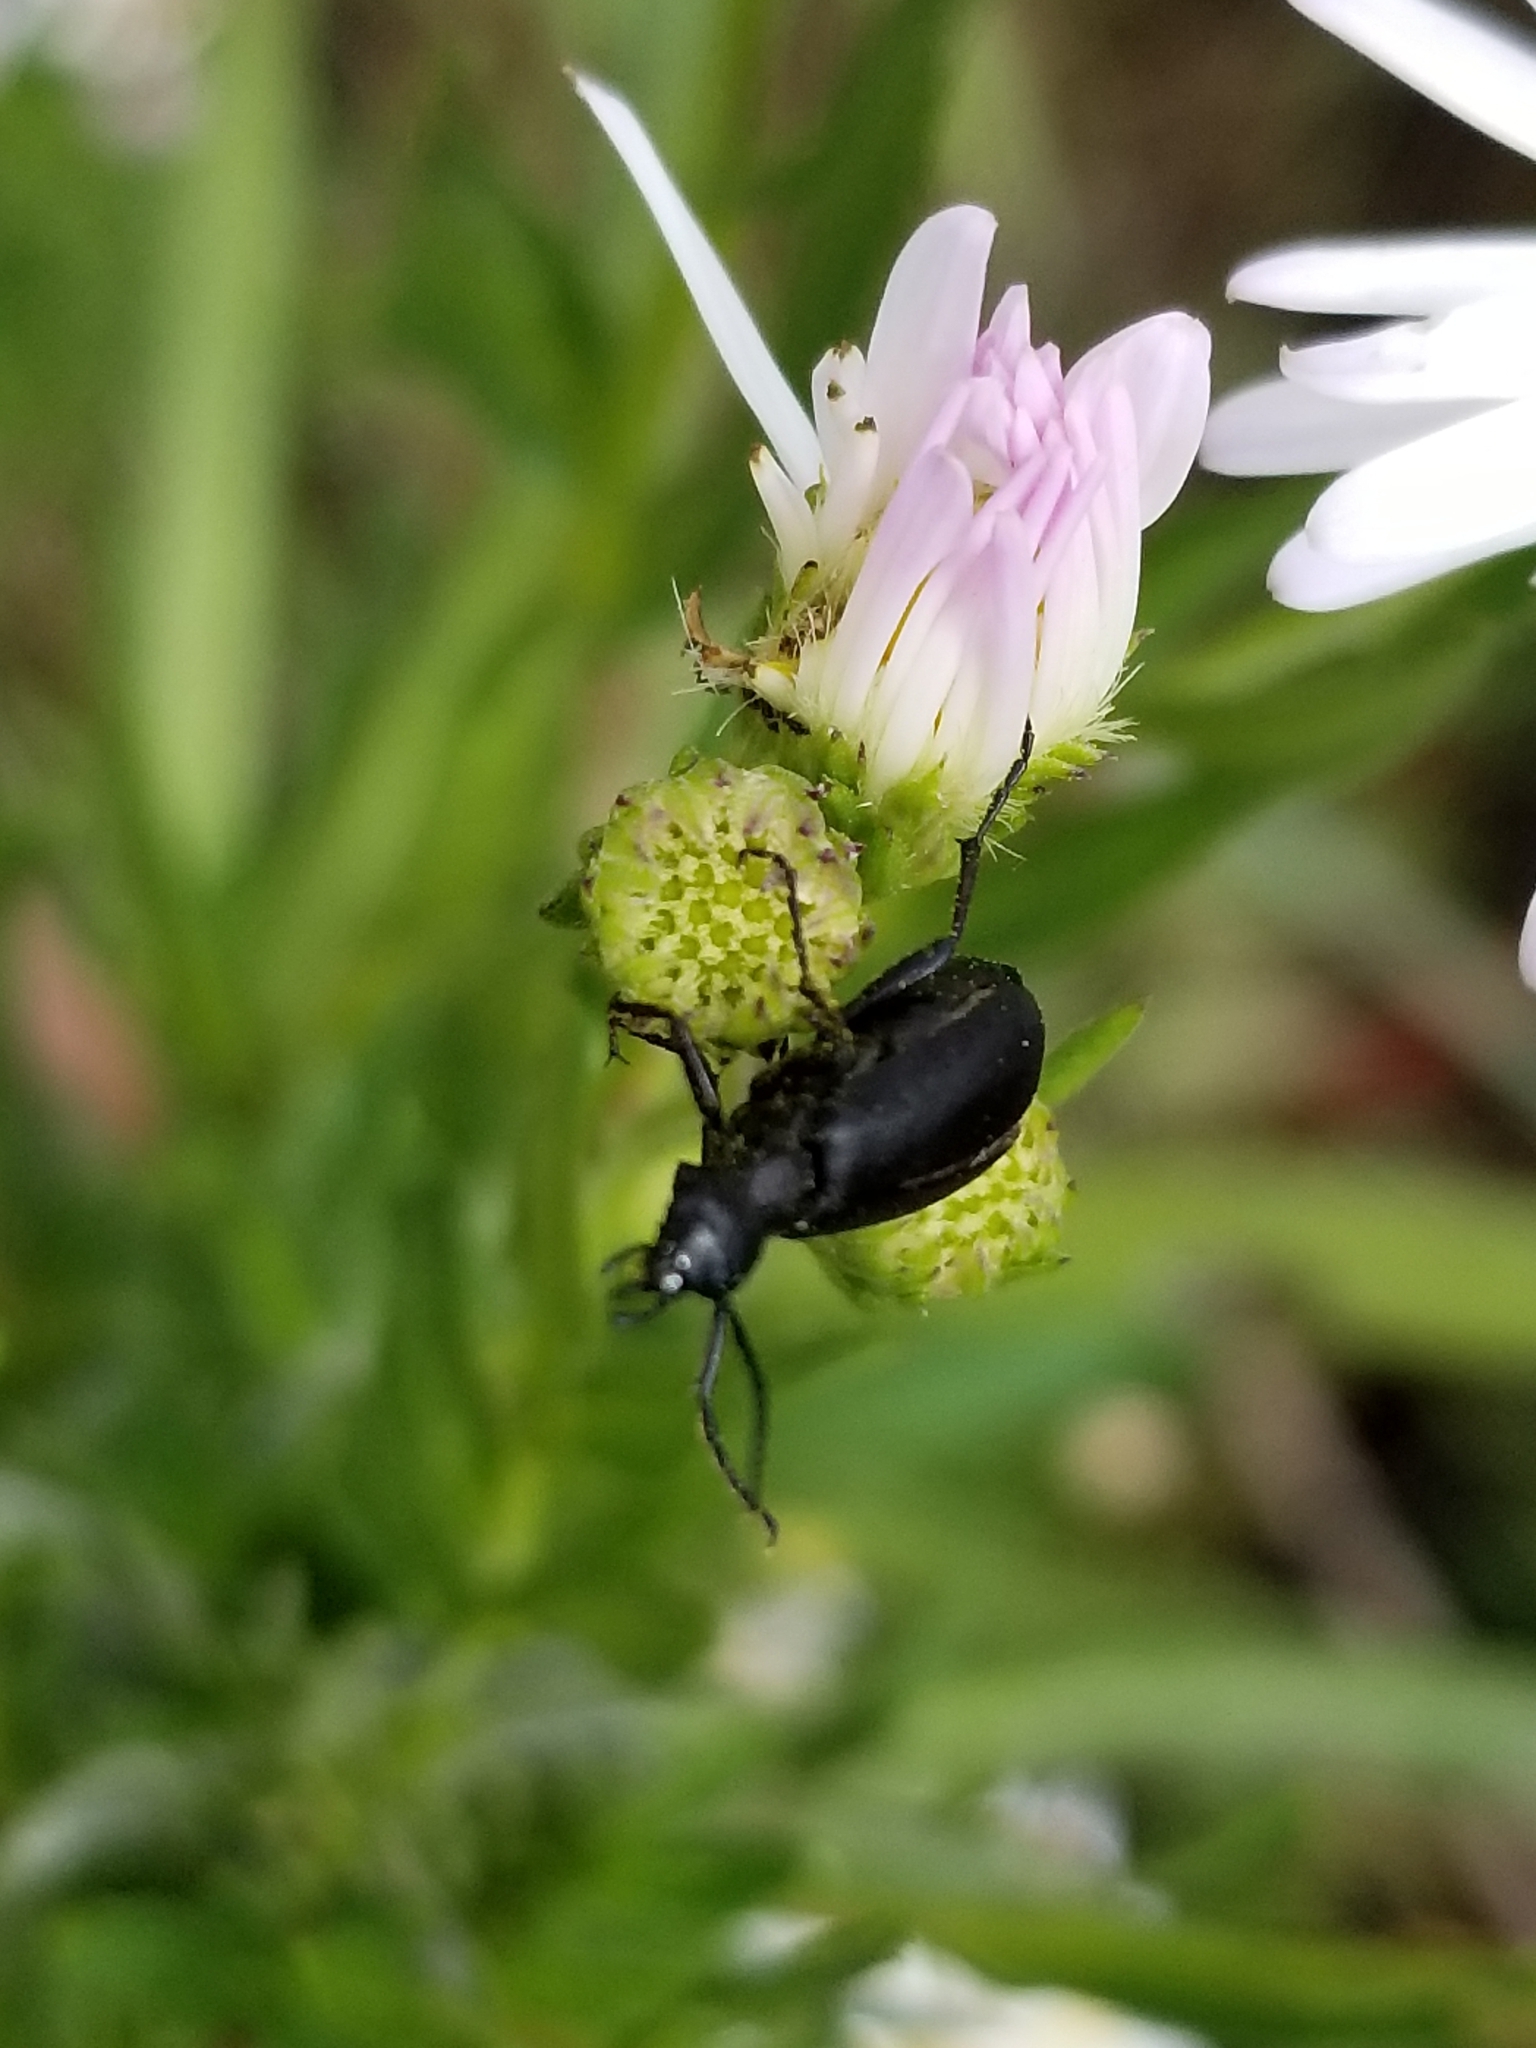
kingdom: Animalia
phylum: Arthropoda
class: Insecta
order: Coleoptera
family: Meloidae
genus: Epicauta
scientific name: Epicauta pensylvanica
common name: Black blister beetle
